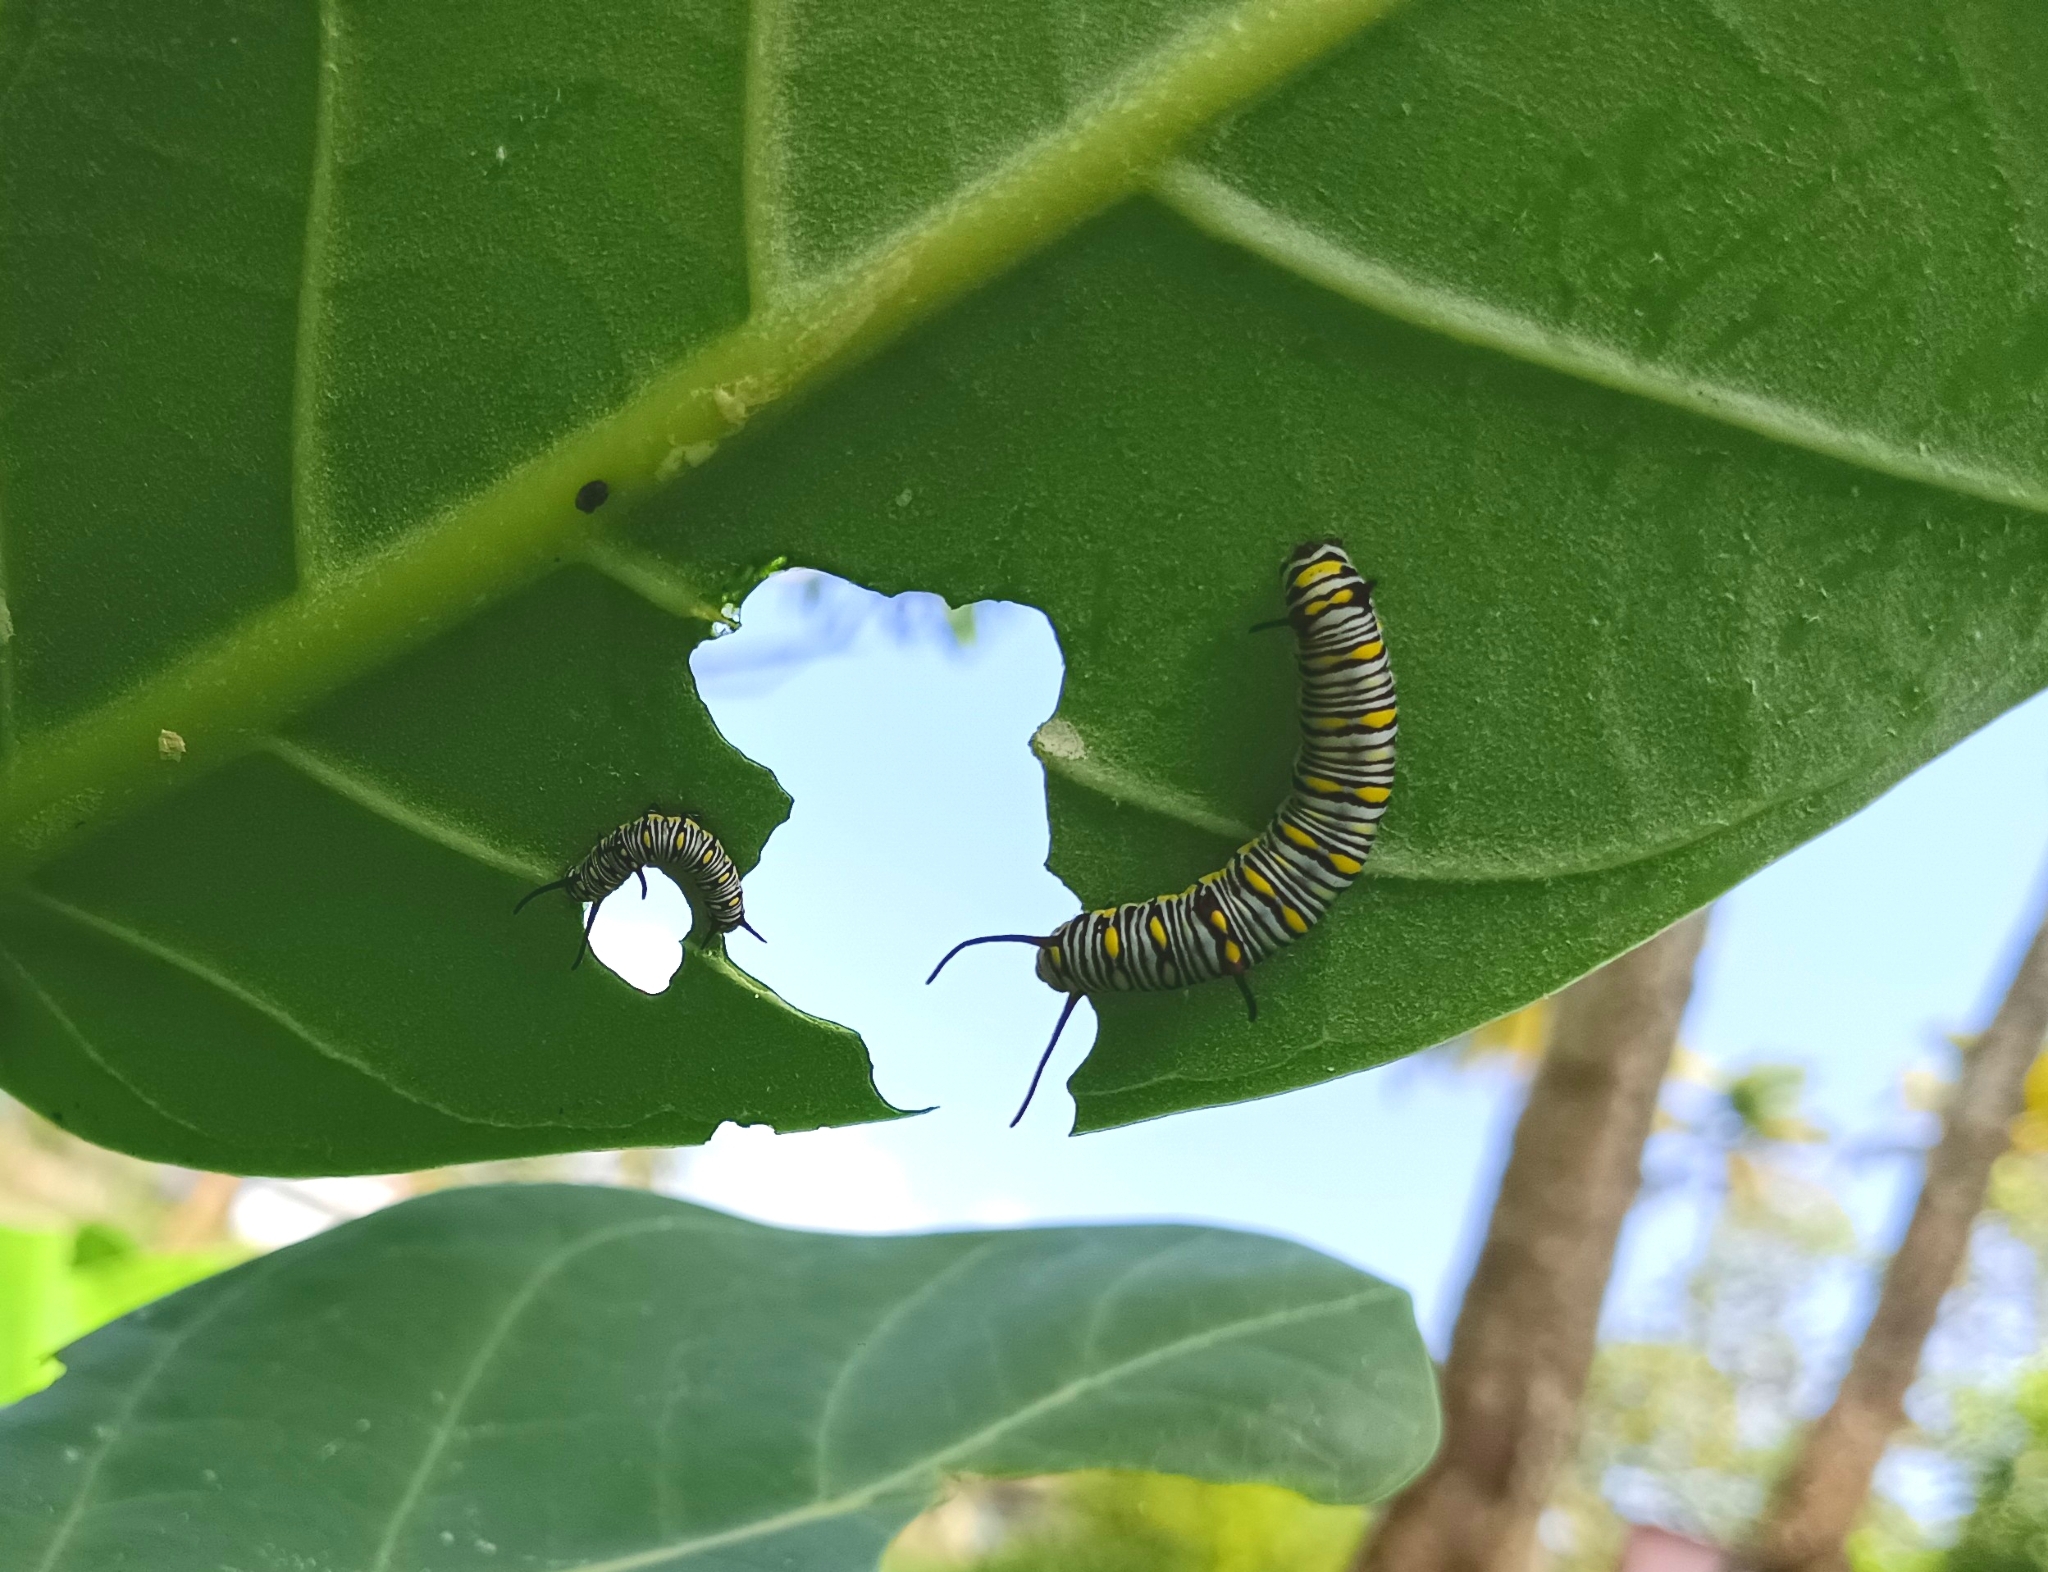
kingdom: Animalia
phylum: Arthropoda
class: Insecta
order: Lepidoptera
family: Nymphalidae
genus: Danaus
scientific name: Danaus chrysippus
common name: Plain tiger
